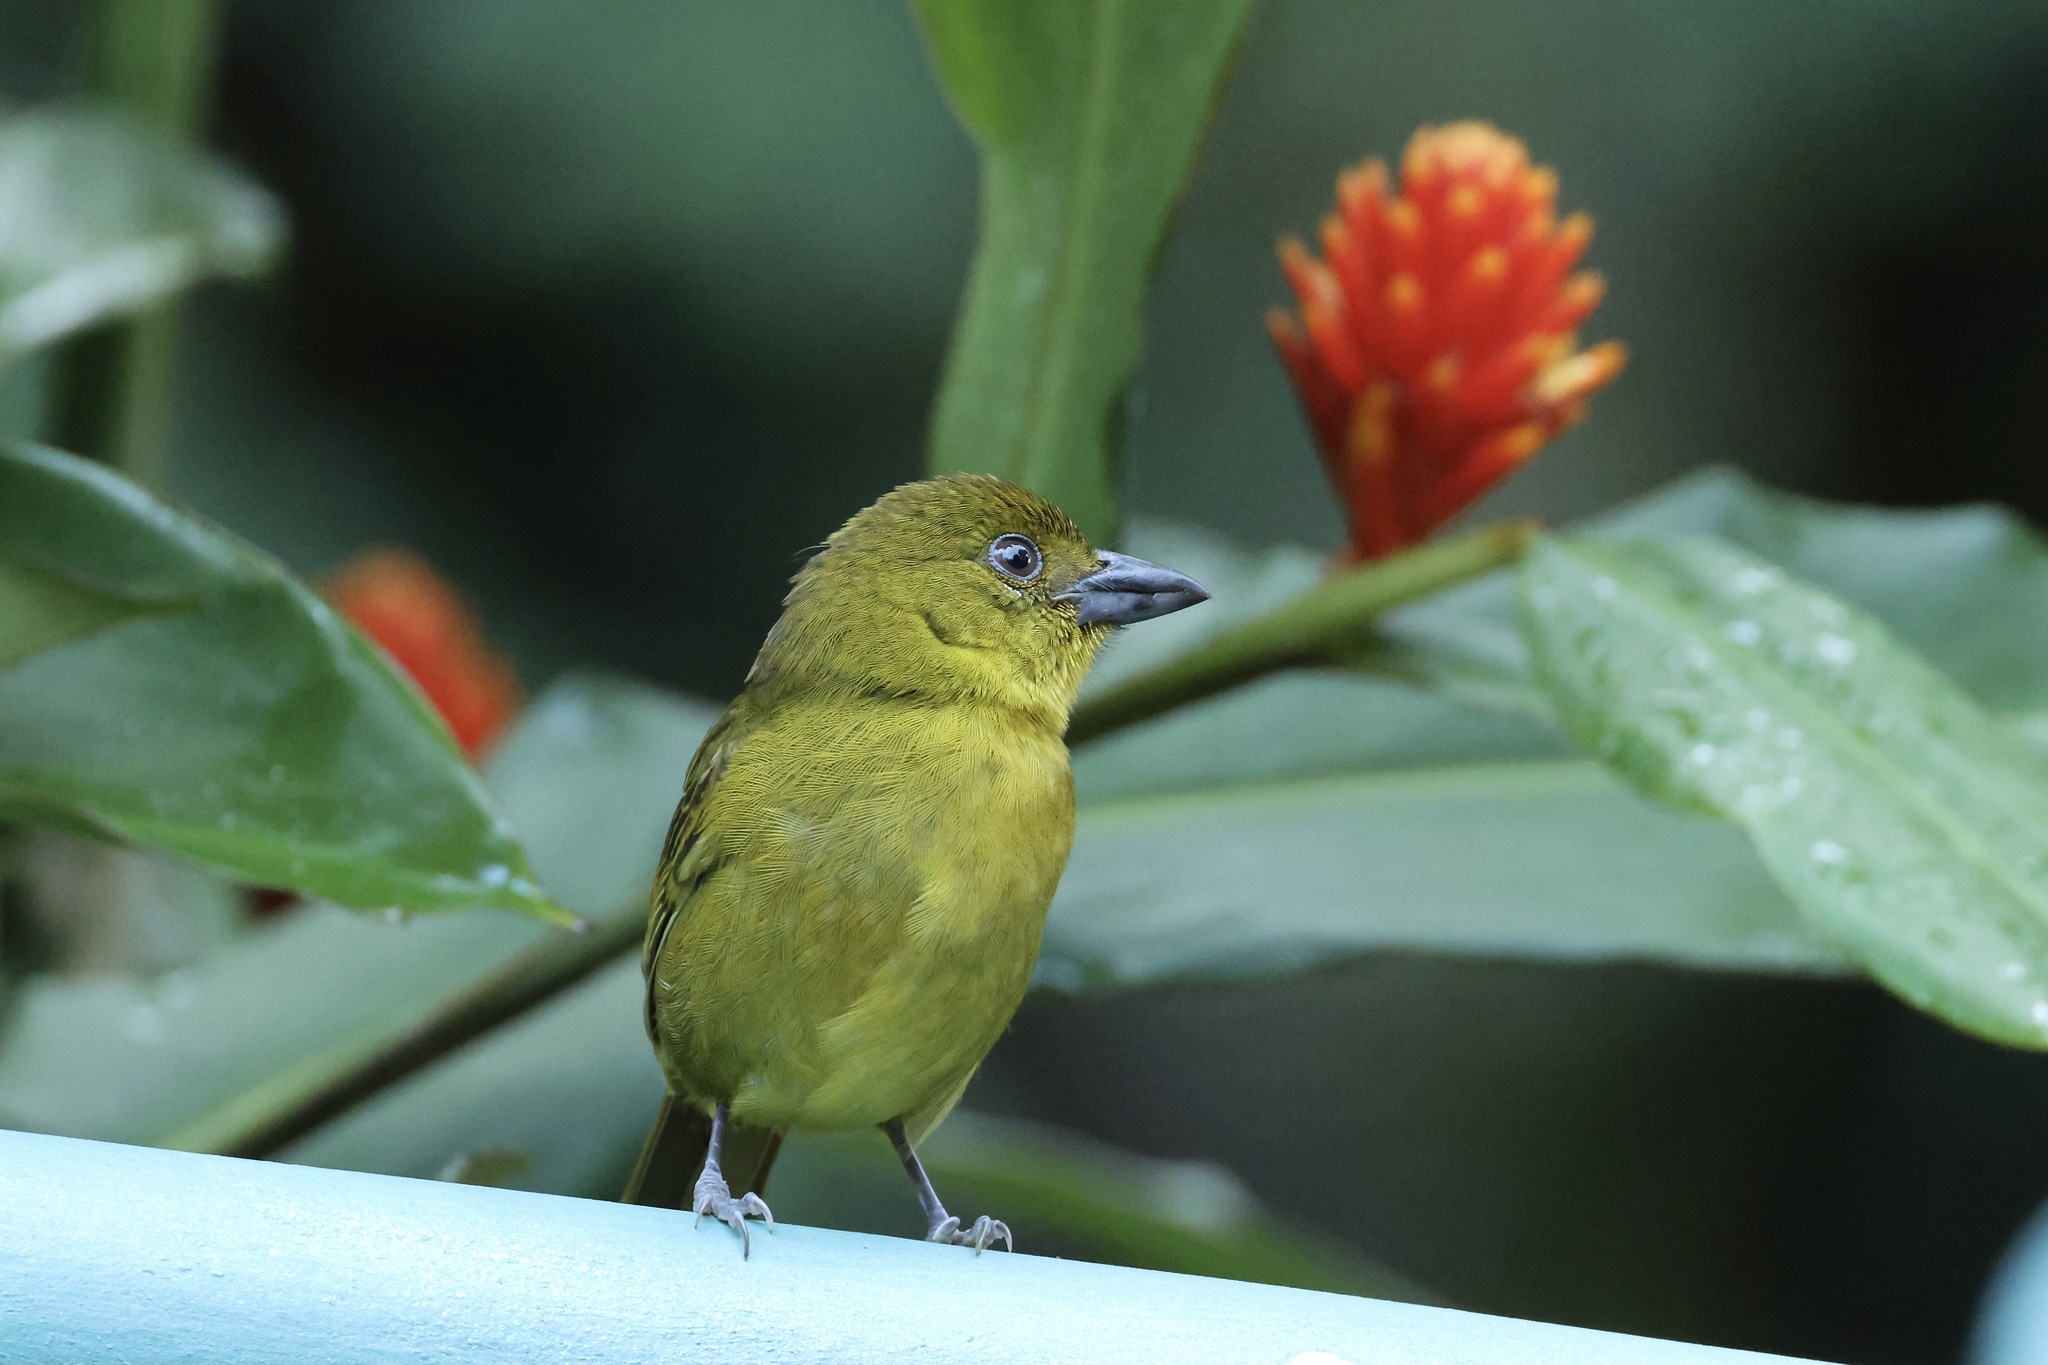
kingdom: Animalia
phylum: Chordata
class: Aves
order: Passeriformes
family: Cardinalidae
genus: Chlorothraupis
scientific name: Chlorothraupis carmioli
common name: Carmiol's tanager
